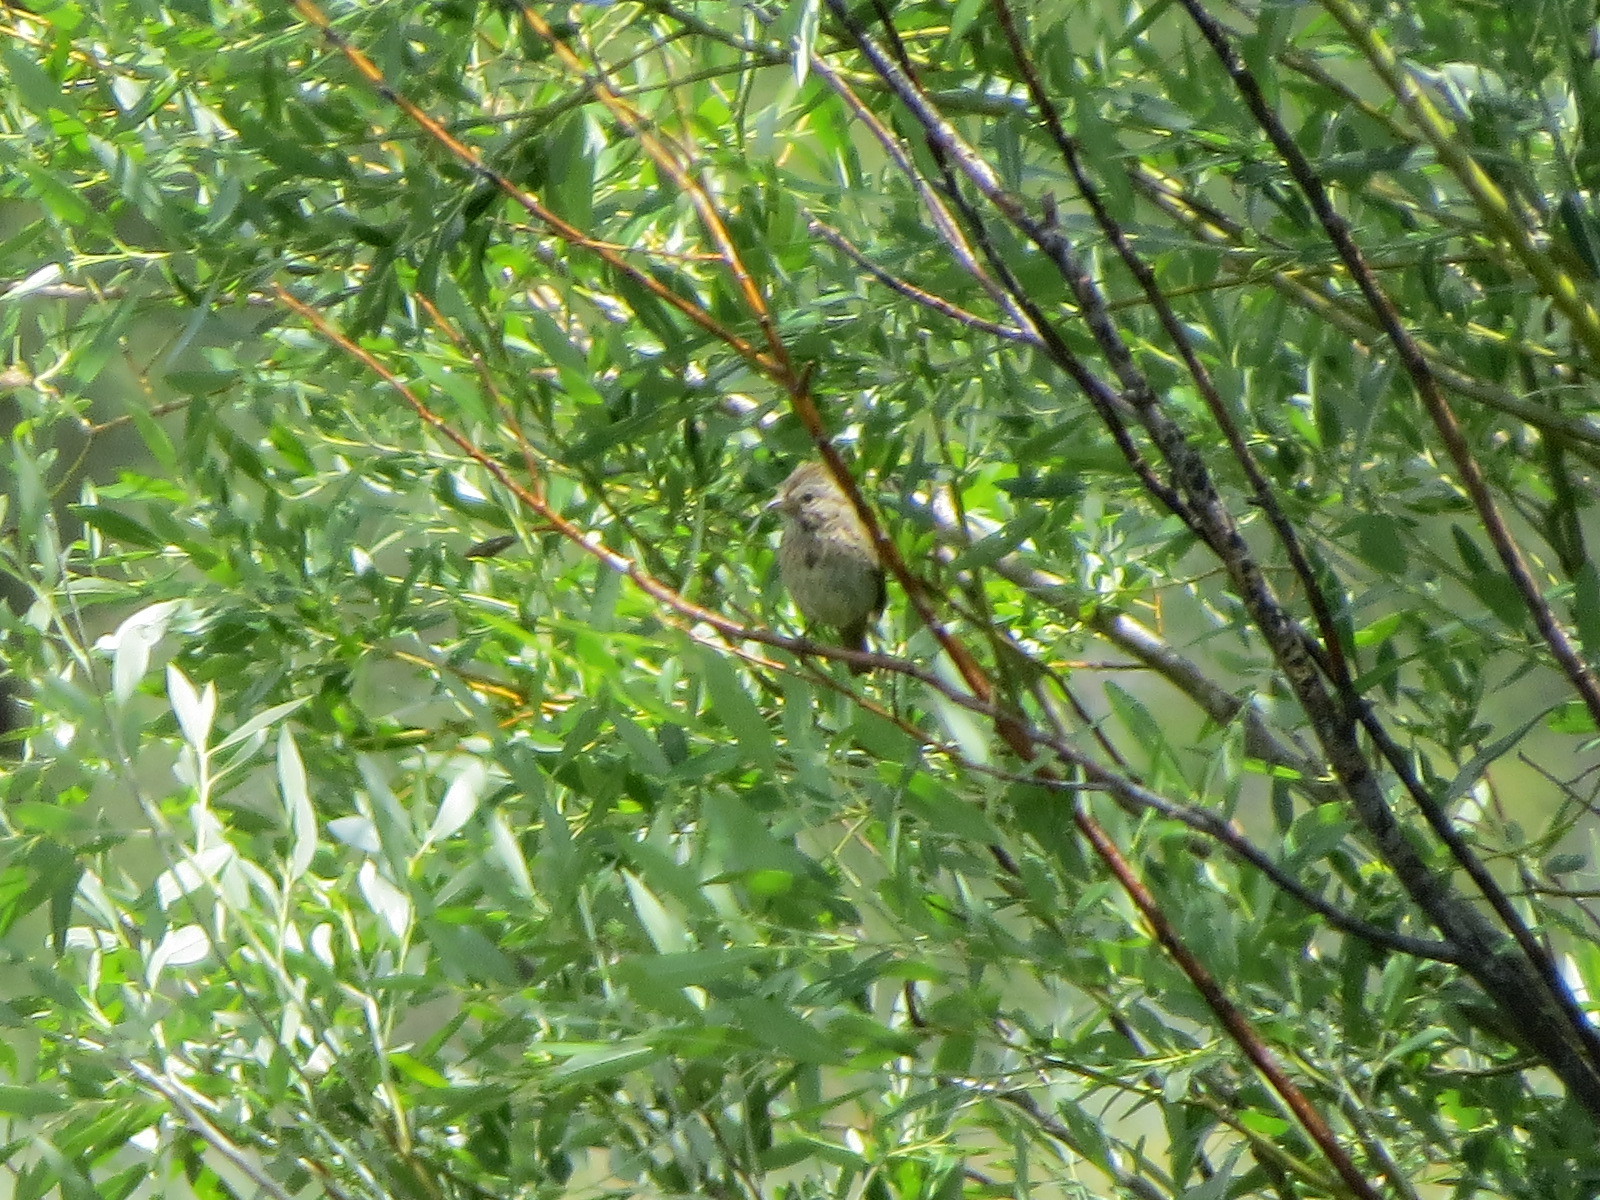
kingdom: Animalia
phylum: Chordata
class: Aves
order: Passeriformes
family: Passerellidae
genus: Melospiza
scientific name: Melospiza lincolnii
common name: Lincoln's sparrow
